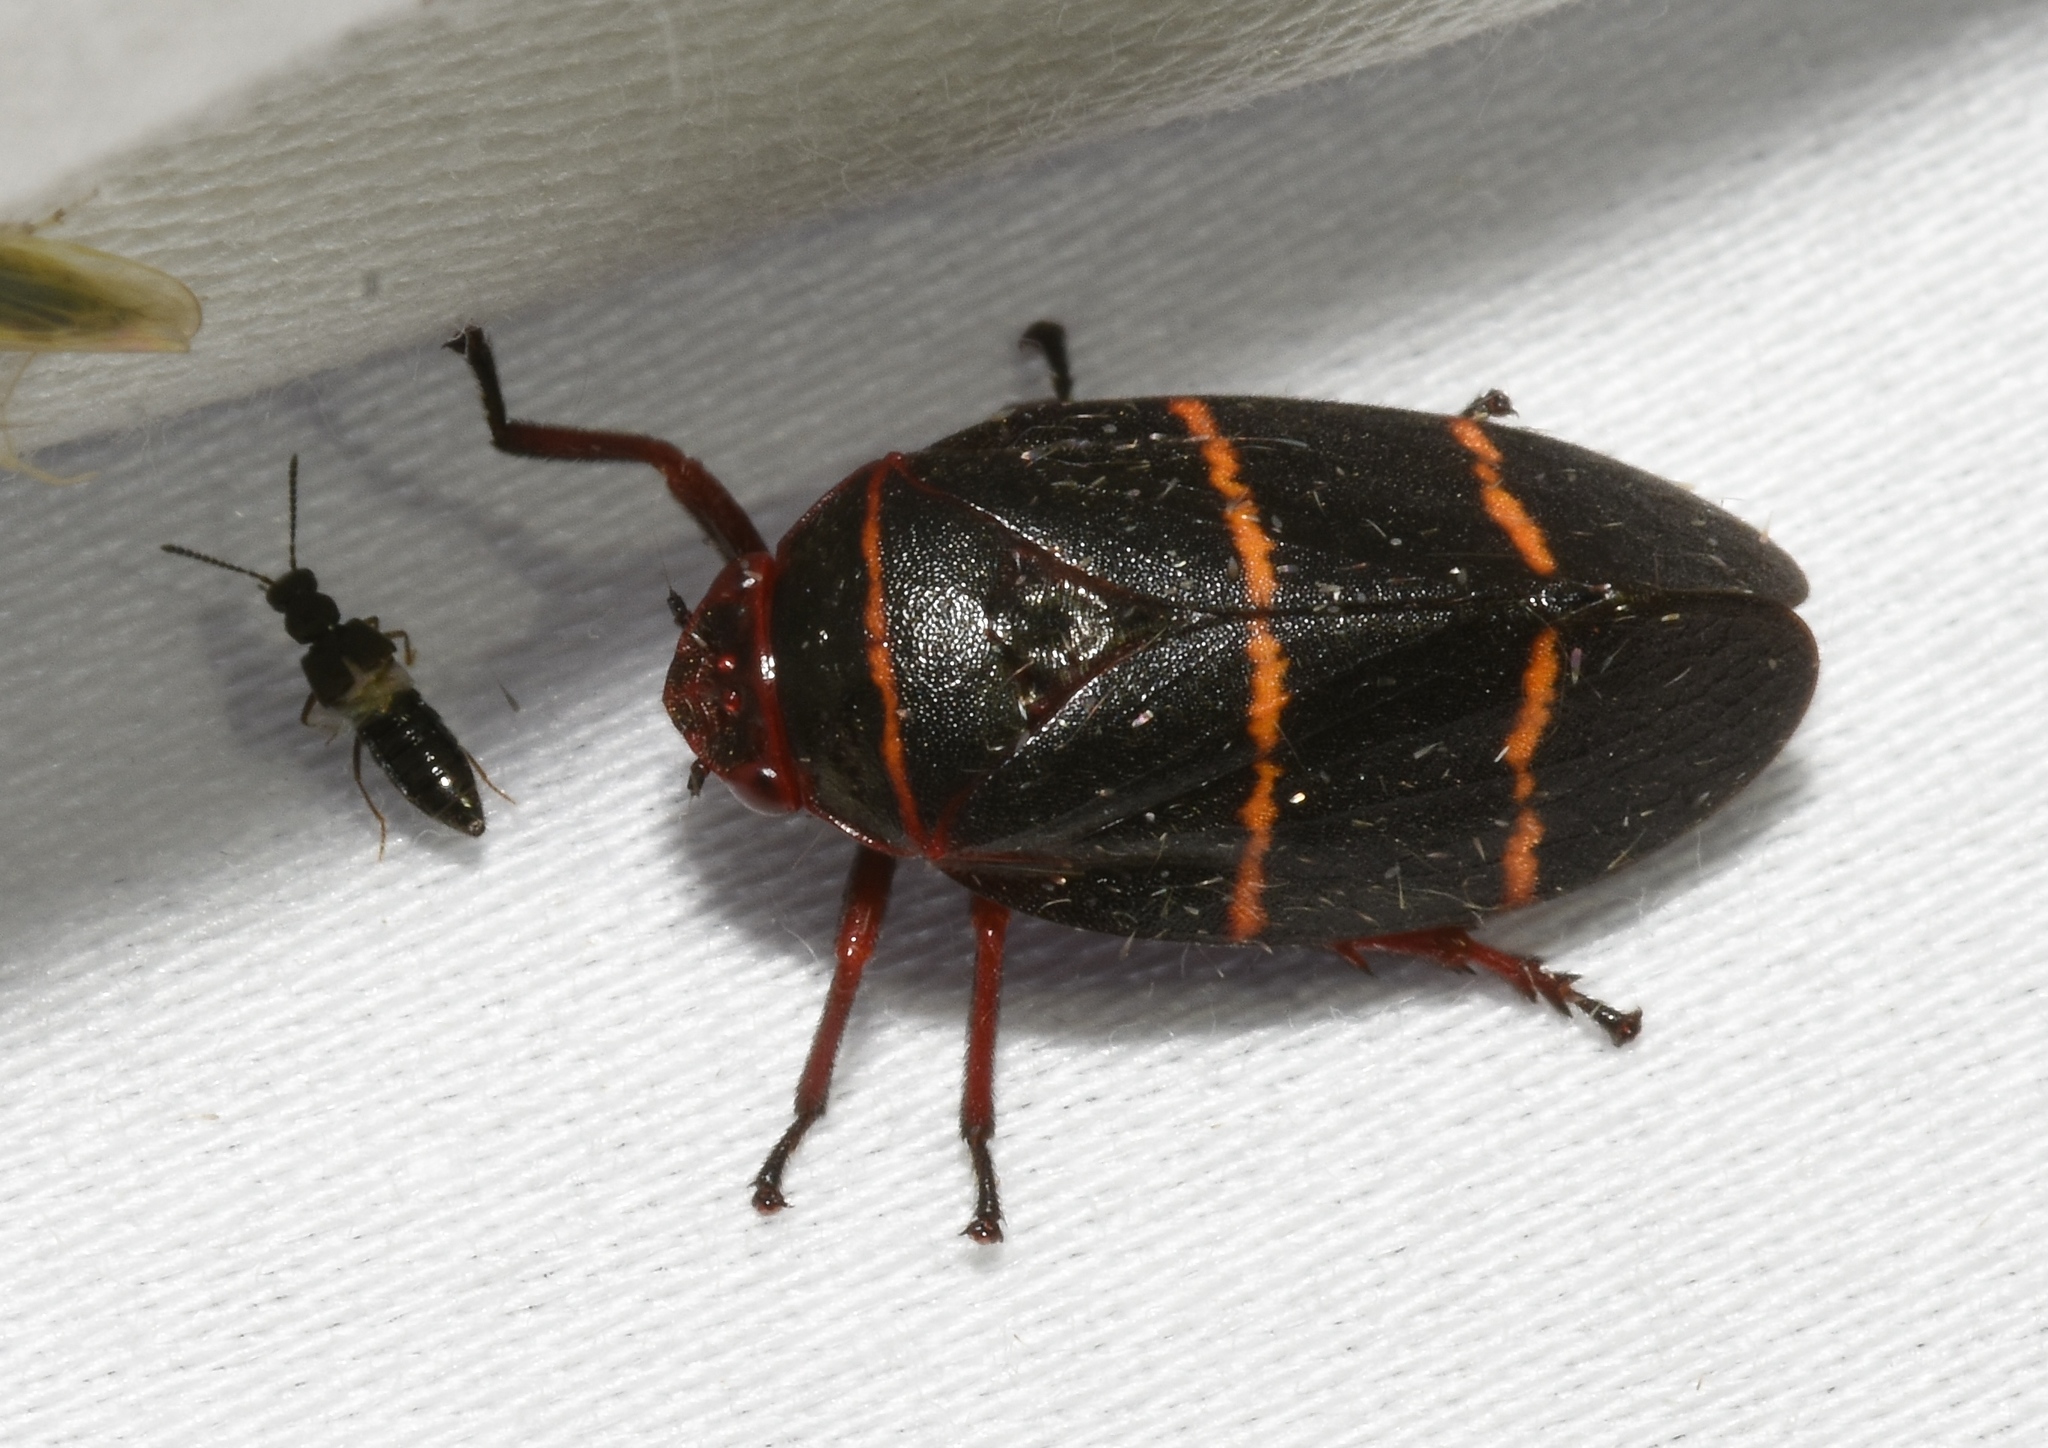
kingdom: Animalia
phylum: Arthropoda
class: Insecta
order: Hemiptera
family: Cercopidae
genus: Prosapia
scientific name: Prosapia bicincta
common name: Twolined spittlebug
